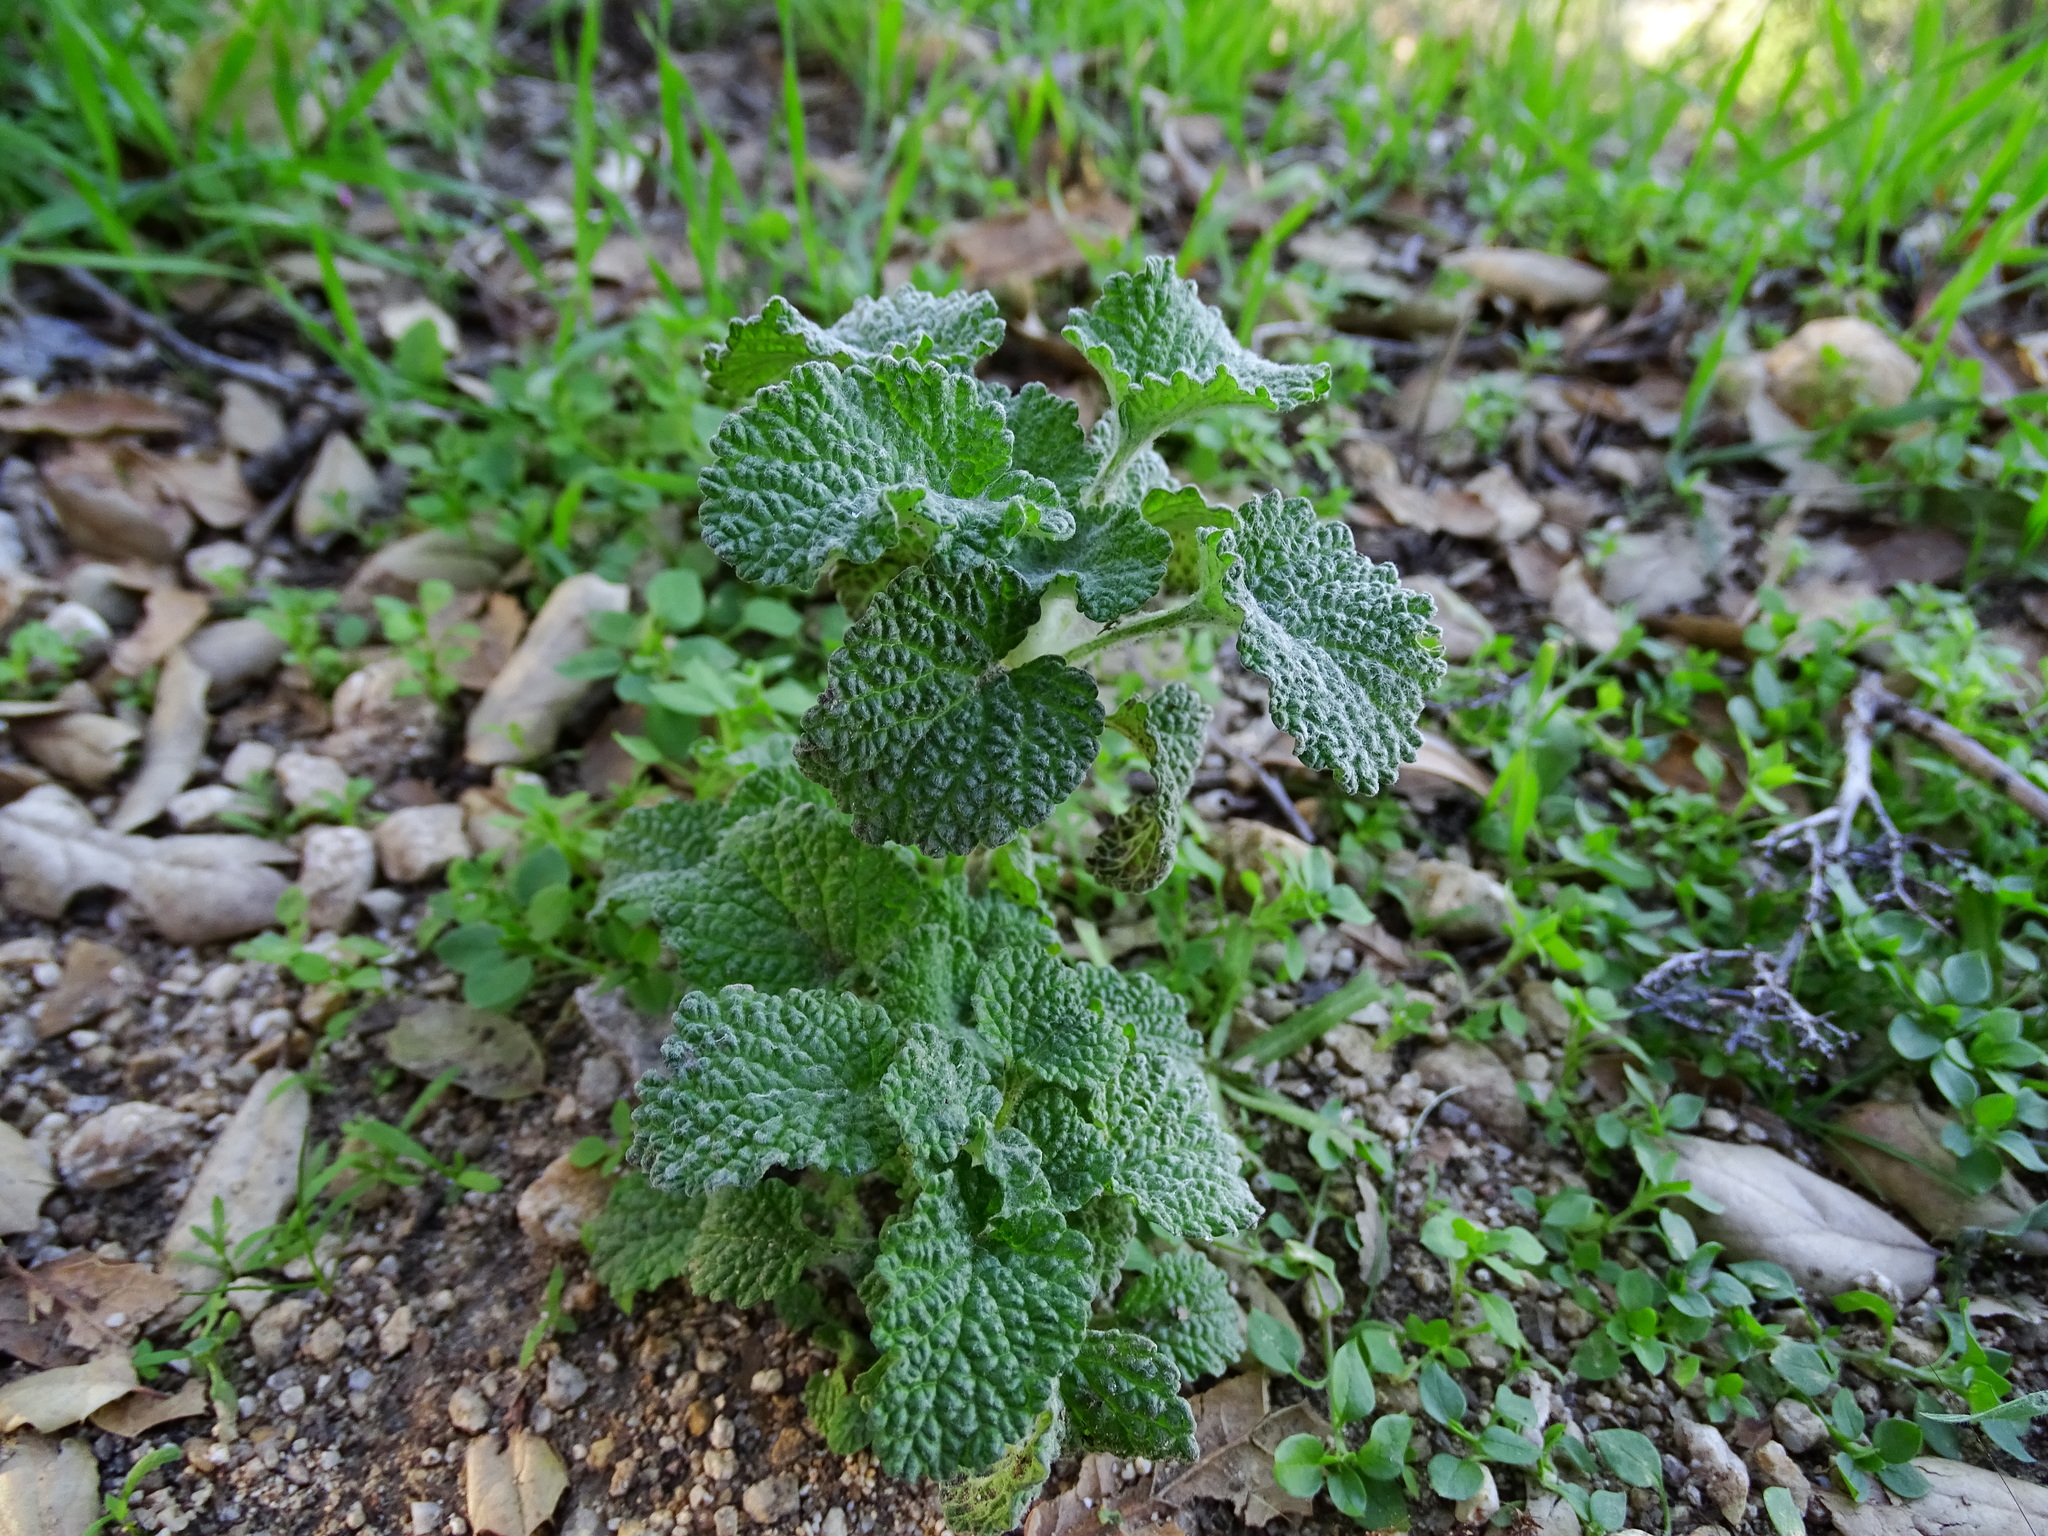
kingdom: Plantae
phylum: Tracheophyta
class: Magnoliopsida
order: Lamiales
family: Lamiaceae
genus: Marrubium
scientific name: Marrubium vulgare
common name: Horehound
